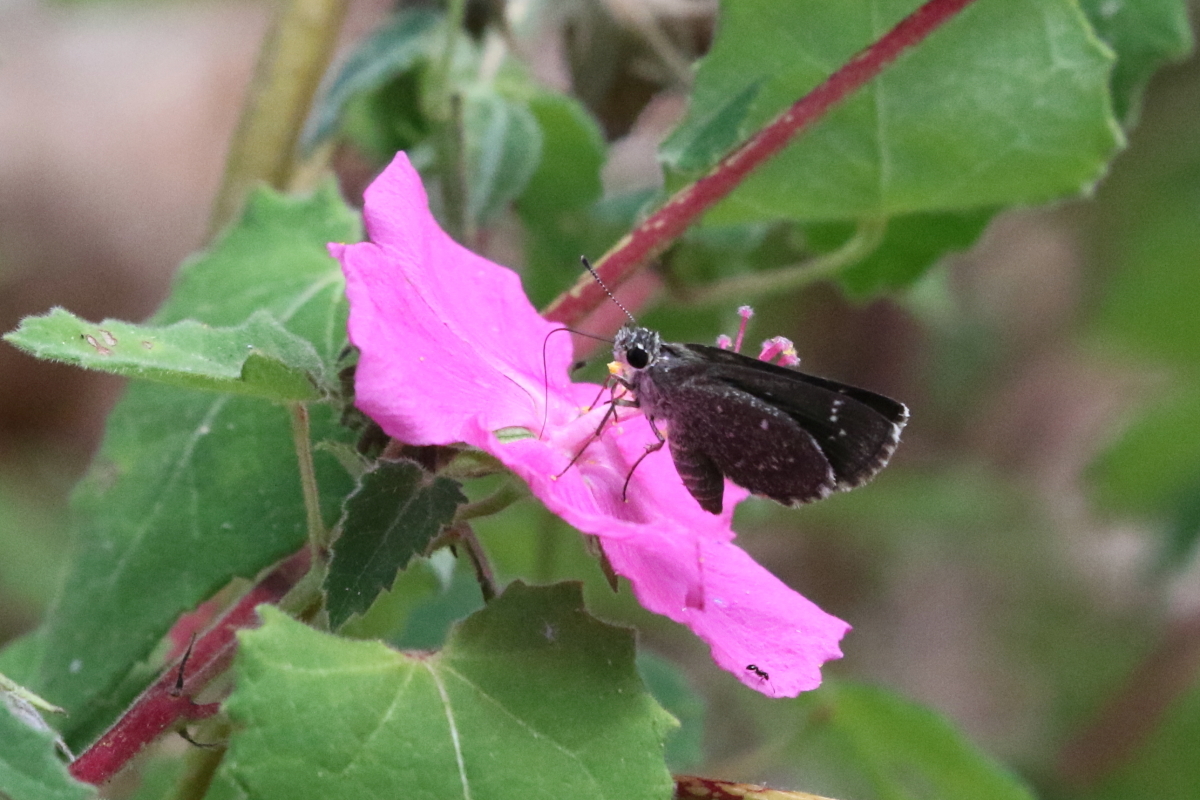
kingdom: Animalia
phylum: Arthropoda
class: Insecta
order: Lepidoptera
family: Hesperiidae
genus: Mastor
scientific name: Mastor celia
